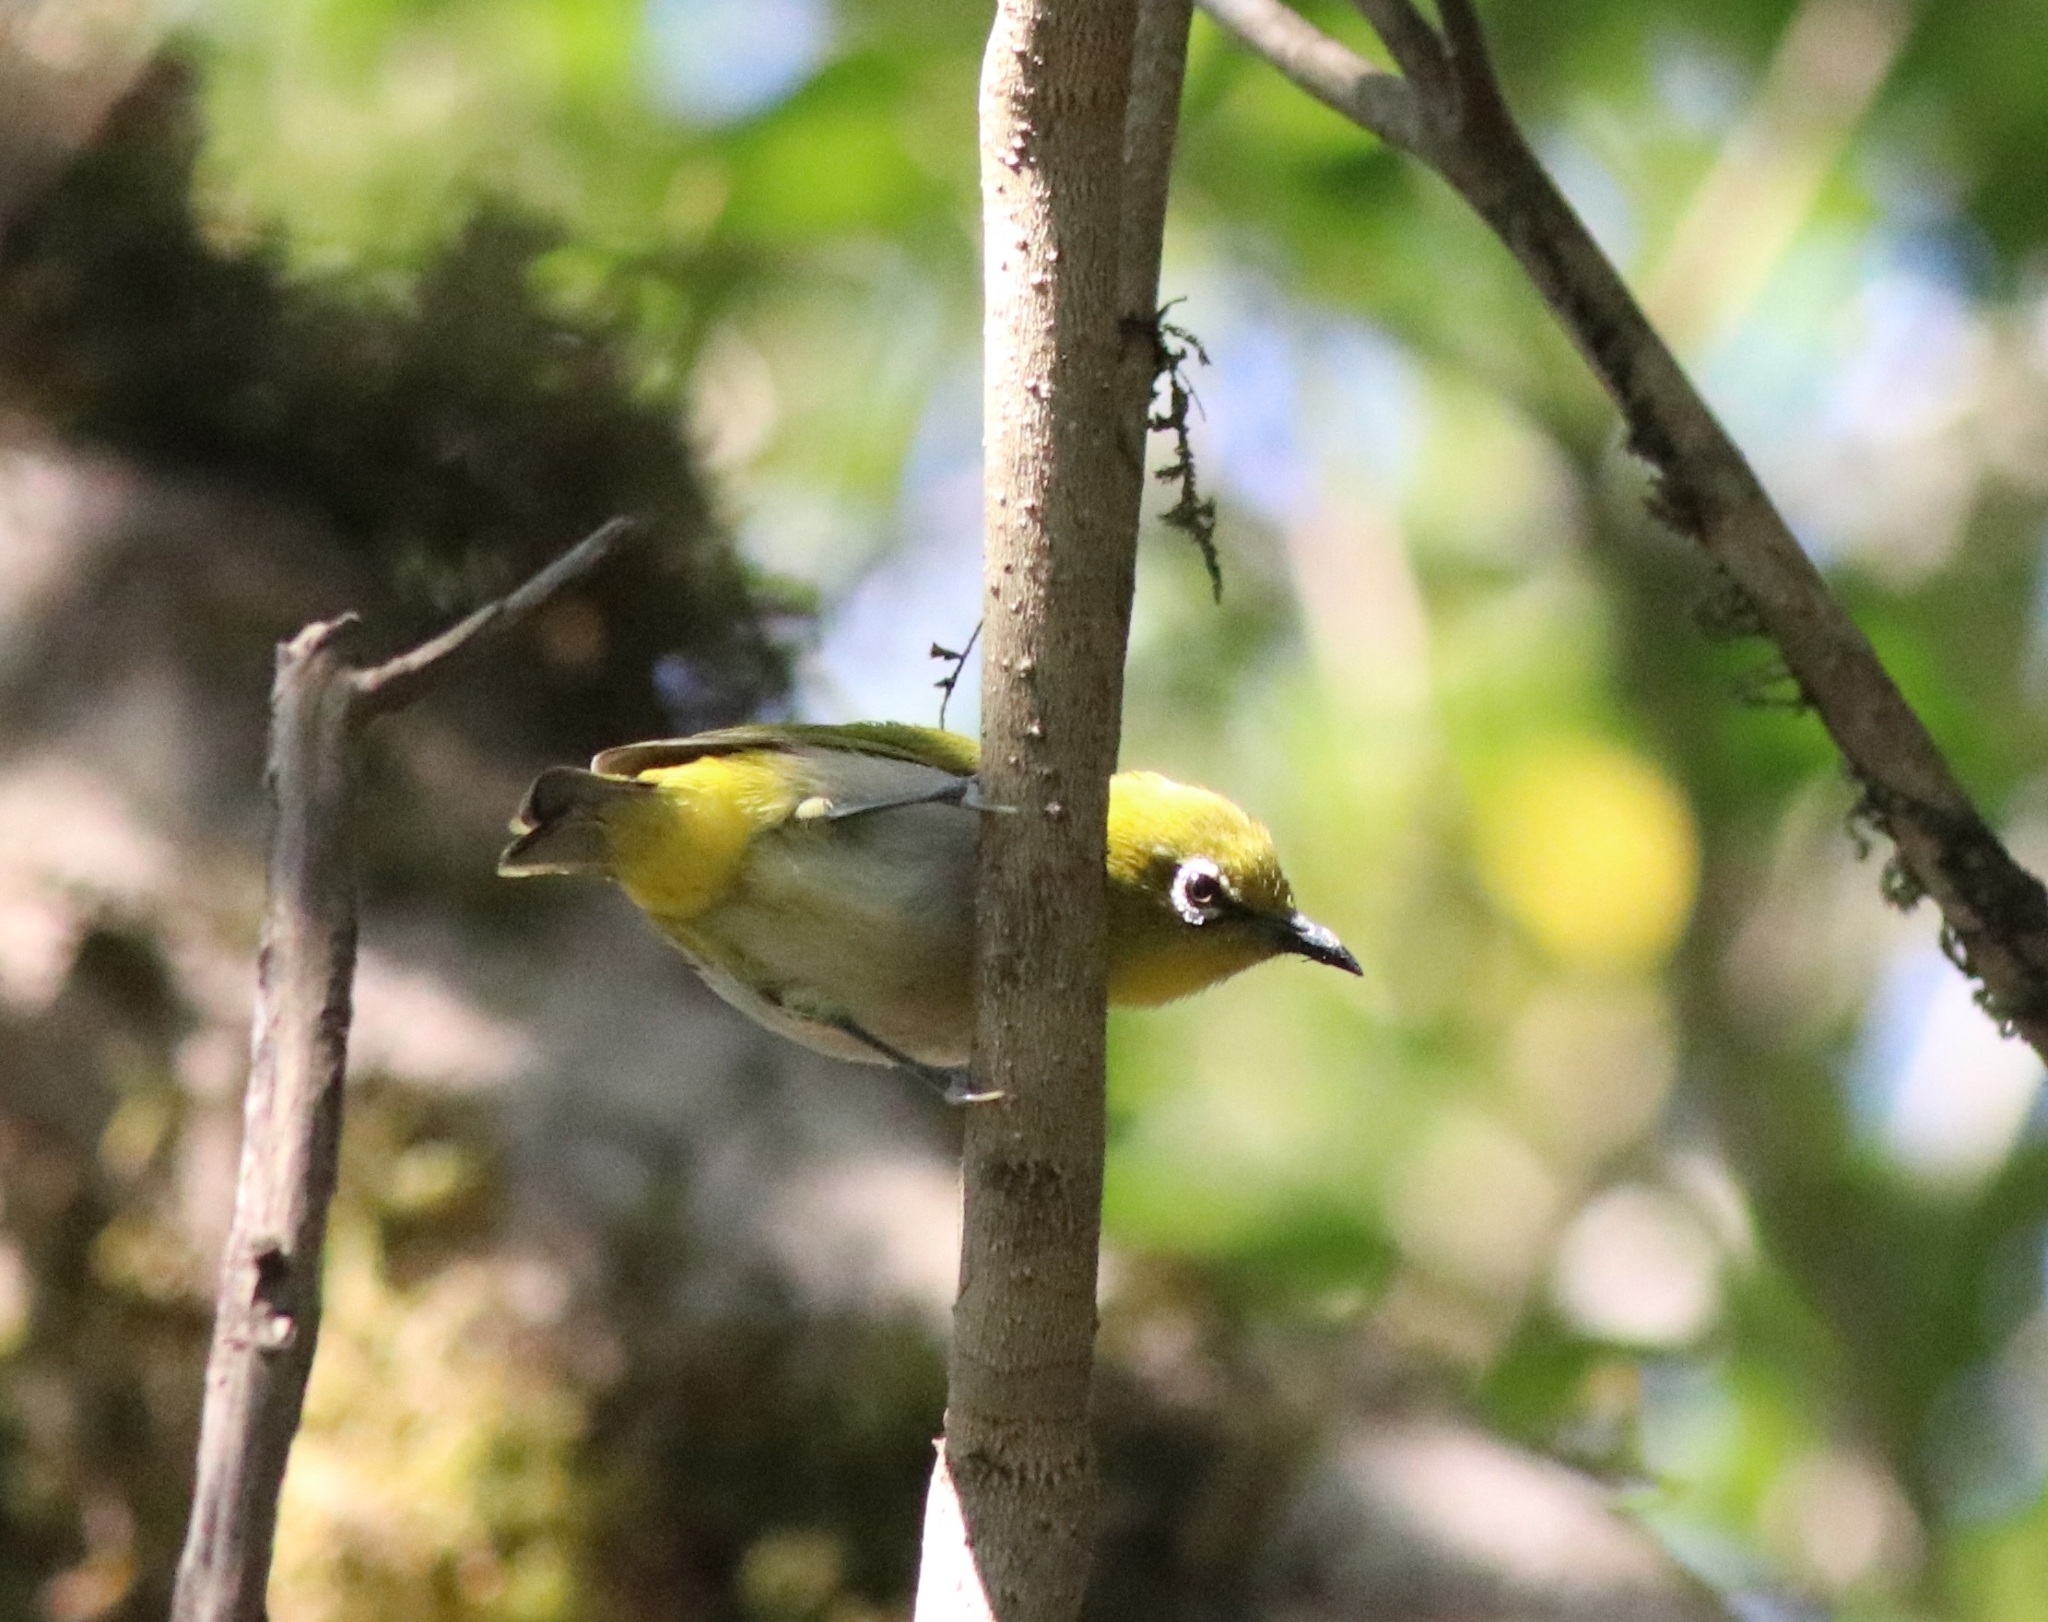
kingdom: Animalia
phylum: Chordata
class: Aves
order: Passeriformes
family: Zosteropidae
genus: Zosterops
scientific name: Zosterops palpebrosus
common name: Oriental white-eye
